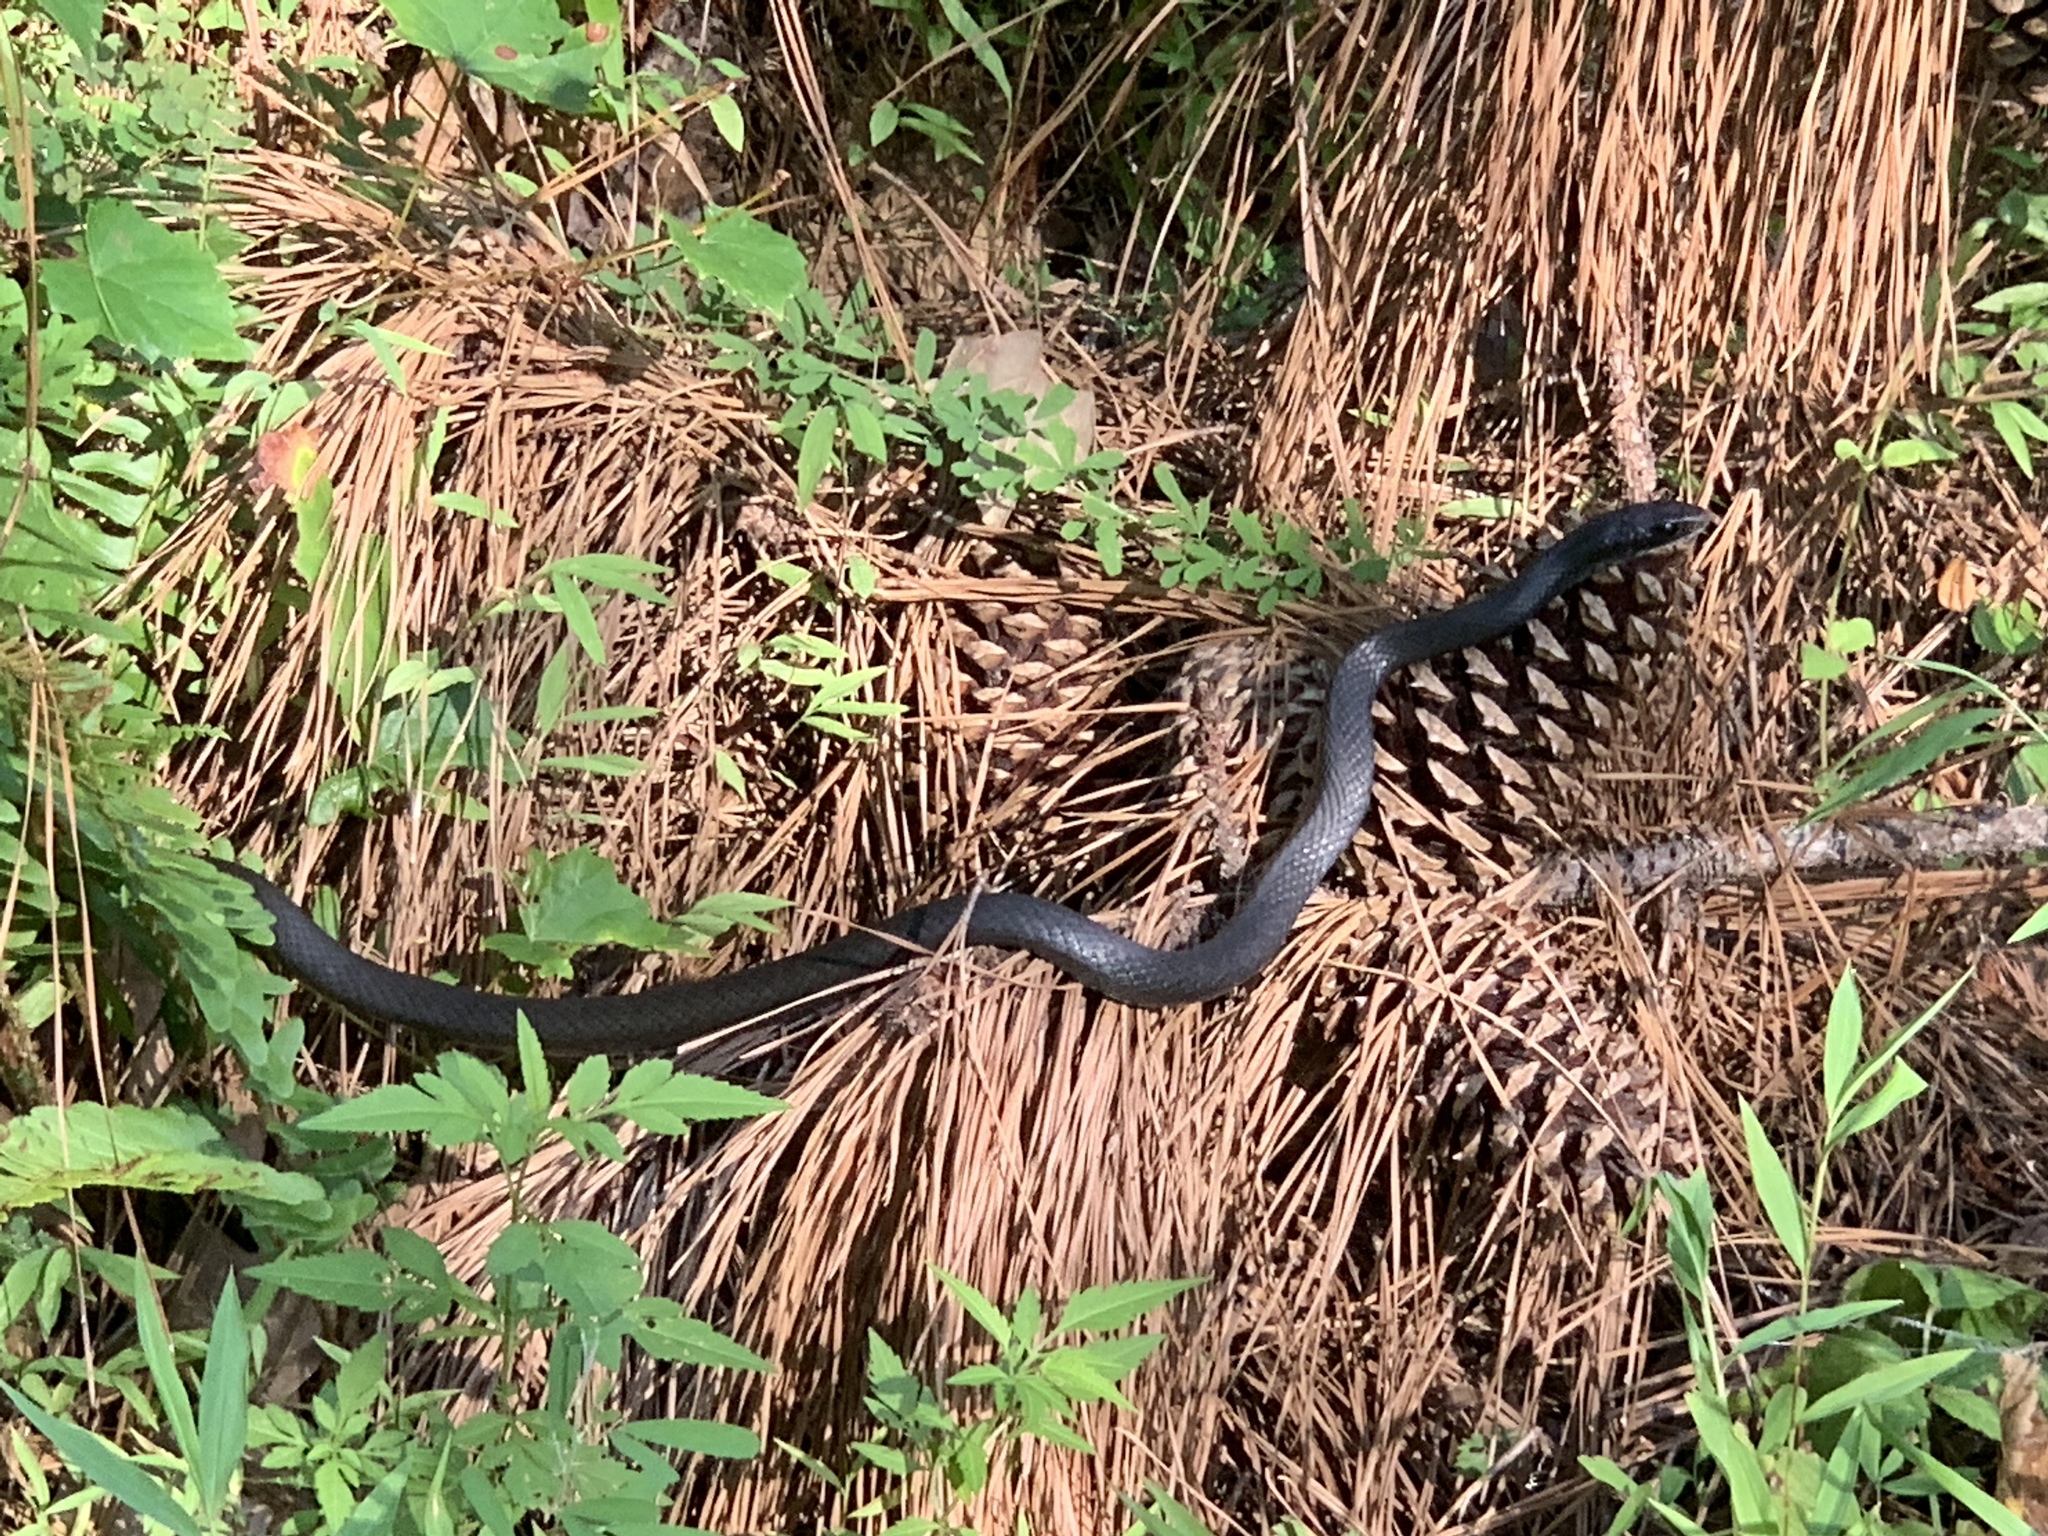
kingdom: Animalia
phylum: Chordata
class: Squamata
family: Colubridae
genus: Coluber
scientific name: Coluber constrictor
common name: Eastern racer
